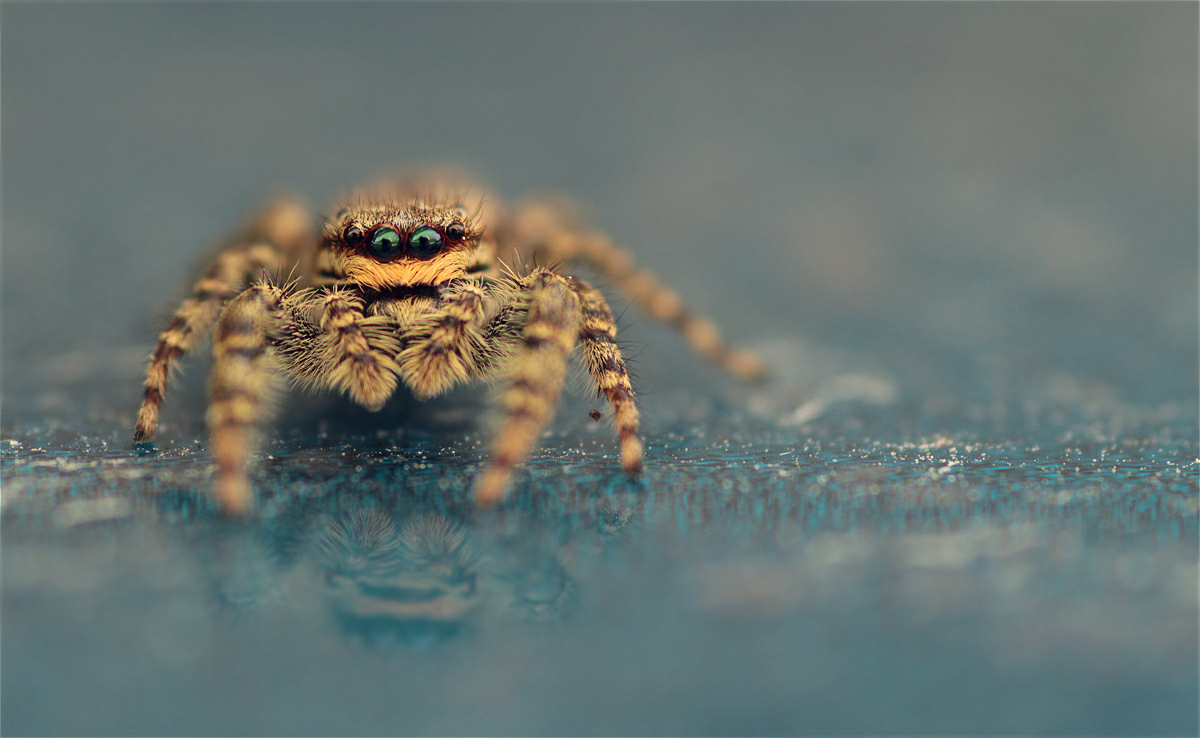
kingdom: Animalia
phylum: Arthropoda
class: Arachnida
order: Araneae
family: Salticidae
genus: Marpissa
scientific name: Marpissa muscosa
